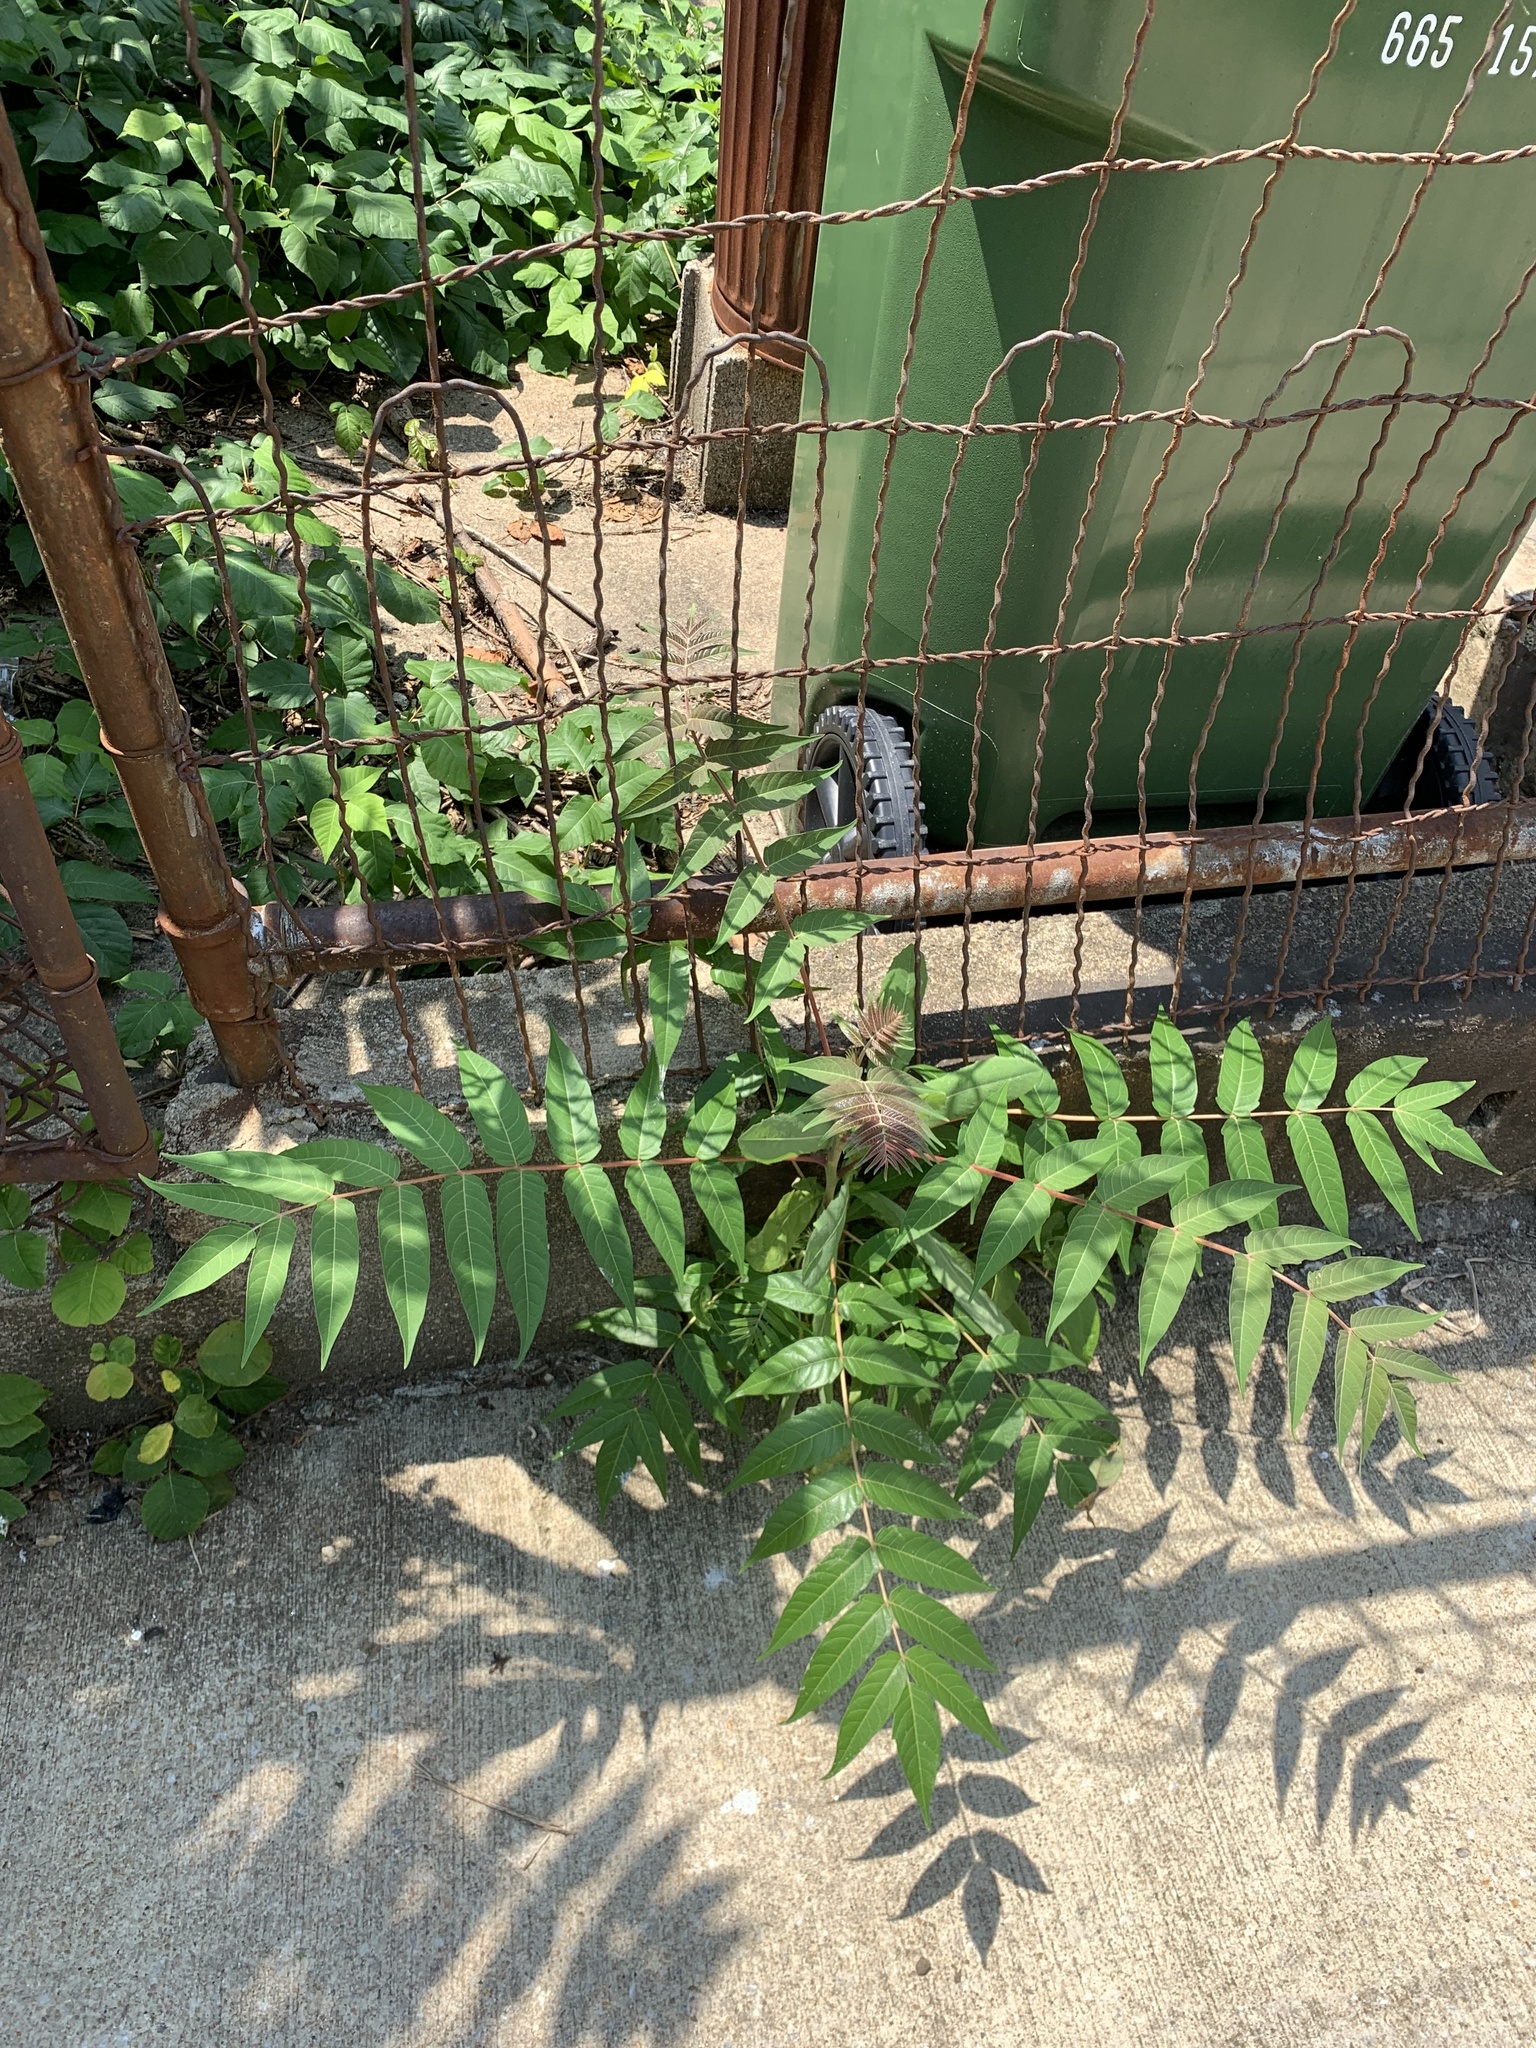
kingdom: Plantae
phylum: Tracheophyta
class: Magnoliopsida
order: Sapindales
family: Simaroubaceae
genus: Ailanthus
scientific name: Ailanthus altissima
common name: Tree-of-heaven
